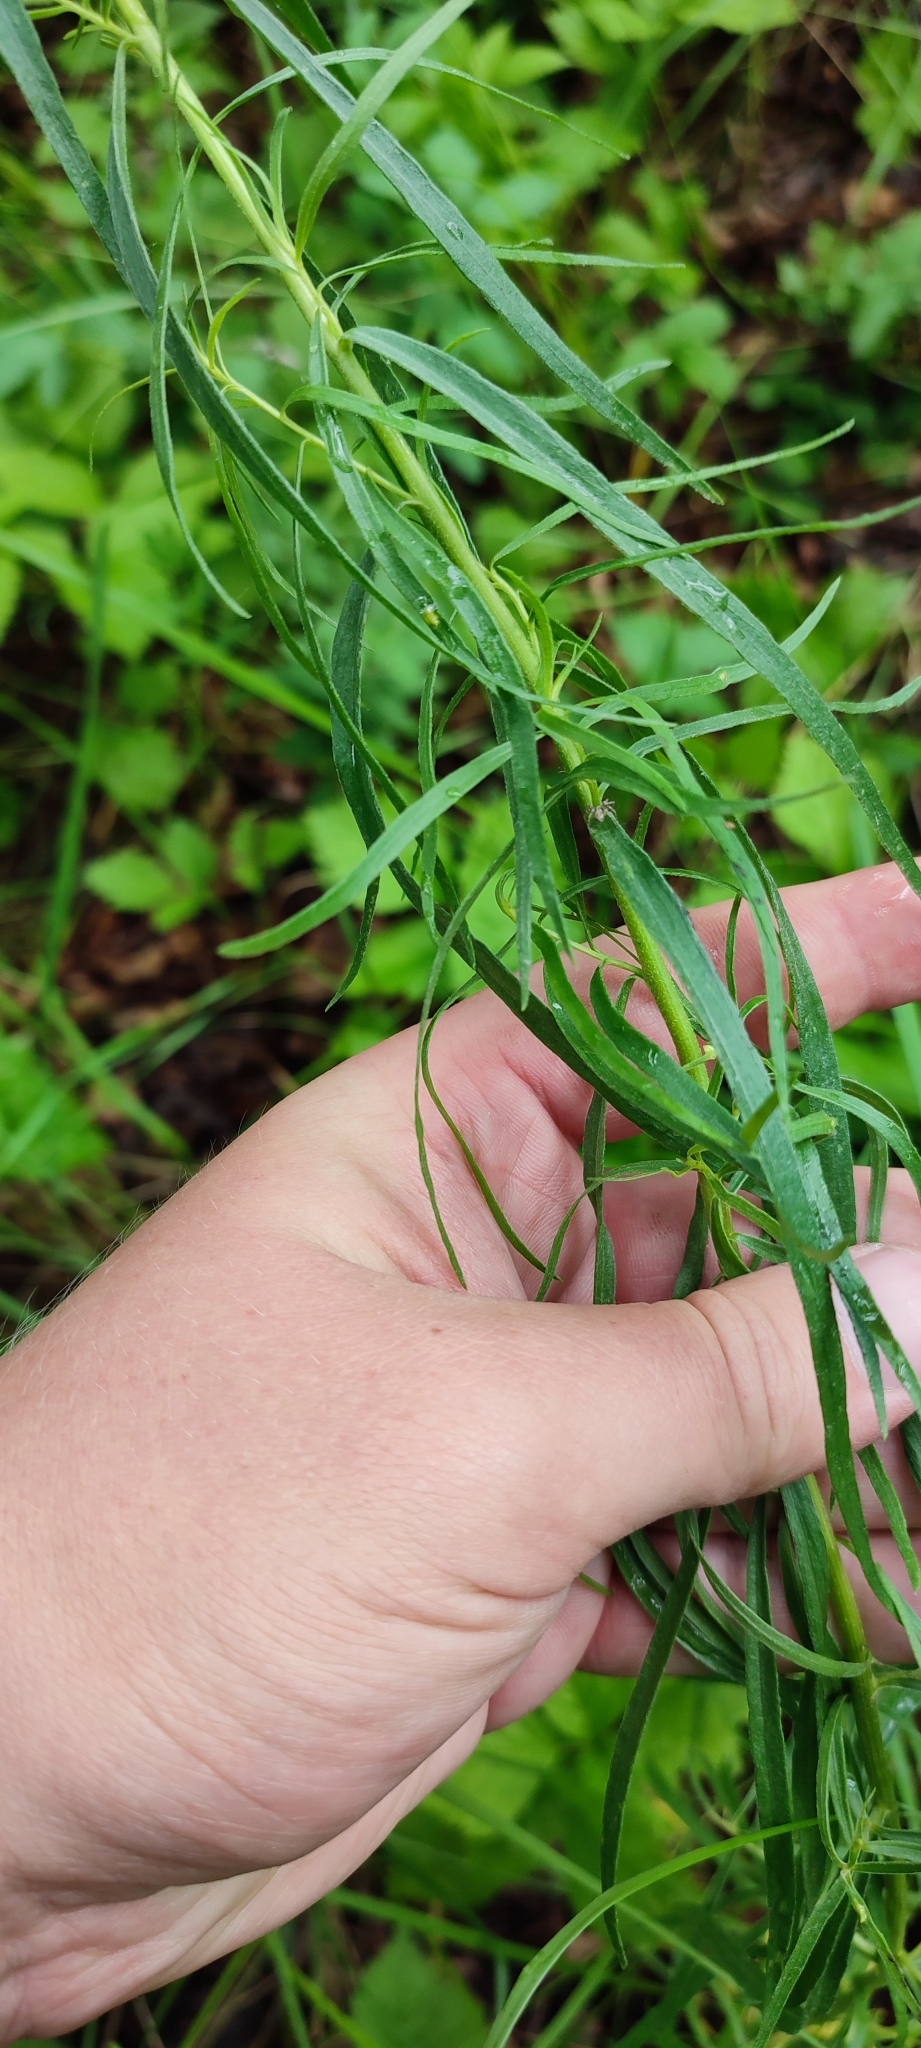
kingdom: Plantae
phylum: Tracheophyta
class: Magnoliopsida
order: Asterales
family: Asteraceae
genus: Artemisia
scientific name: Artemisia dracunculus
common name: Tarragon
